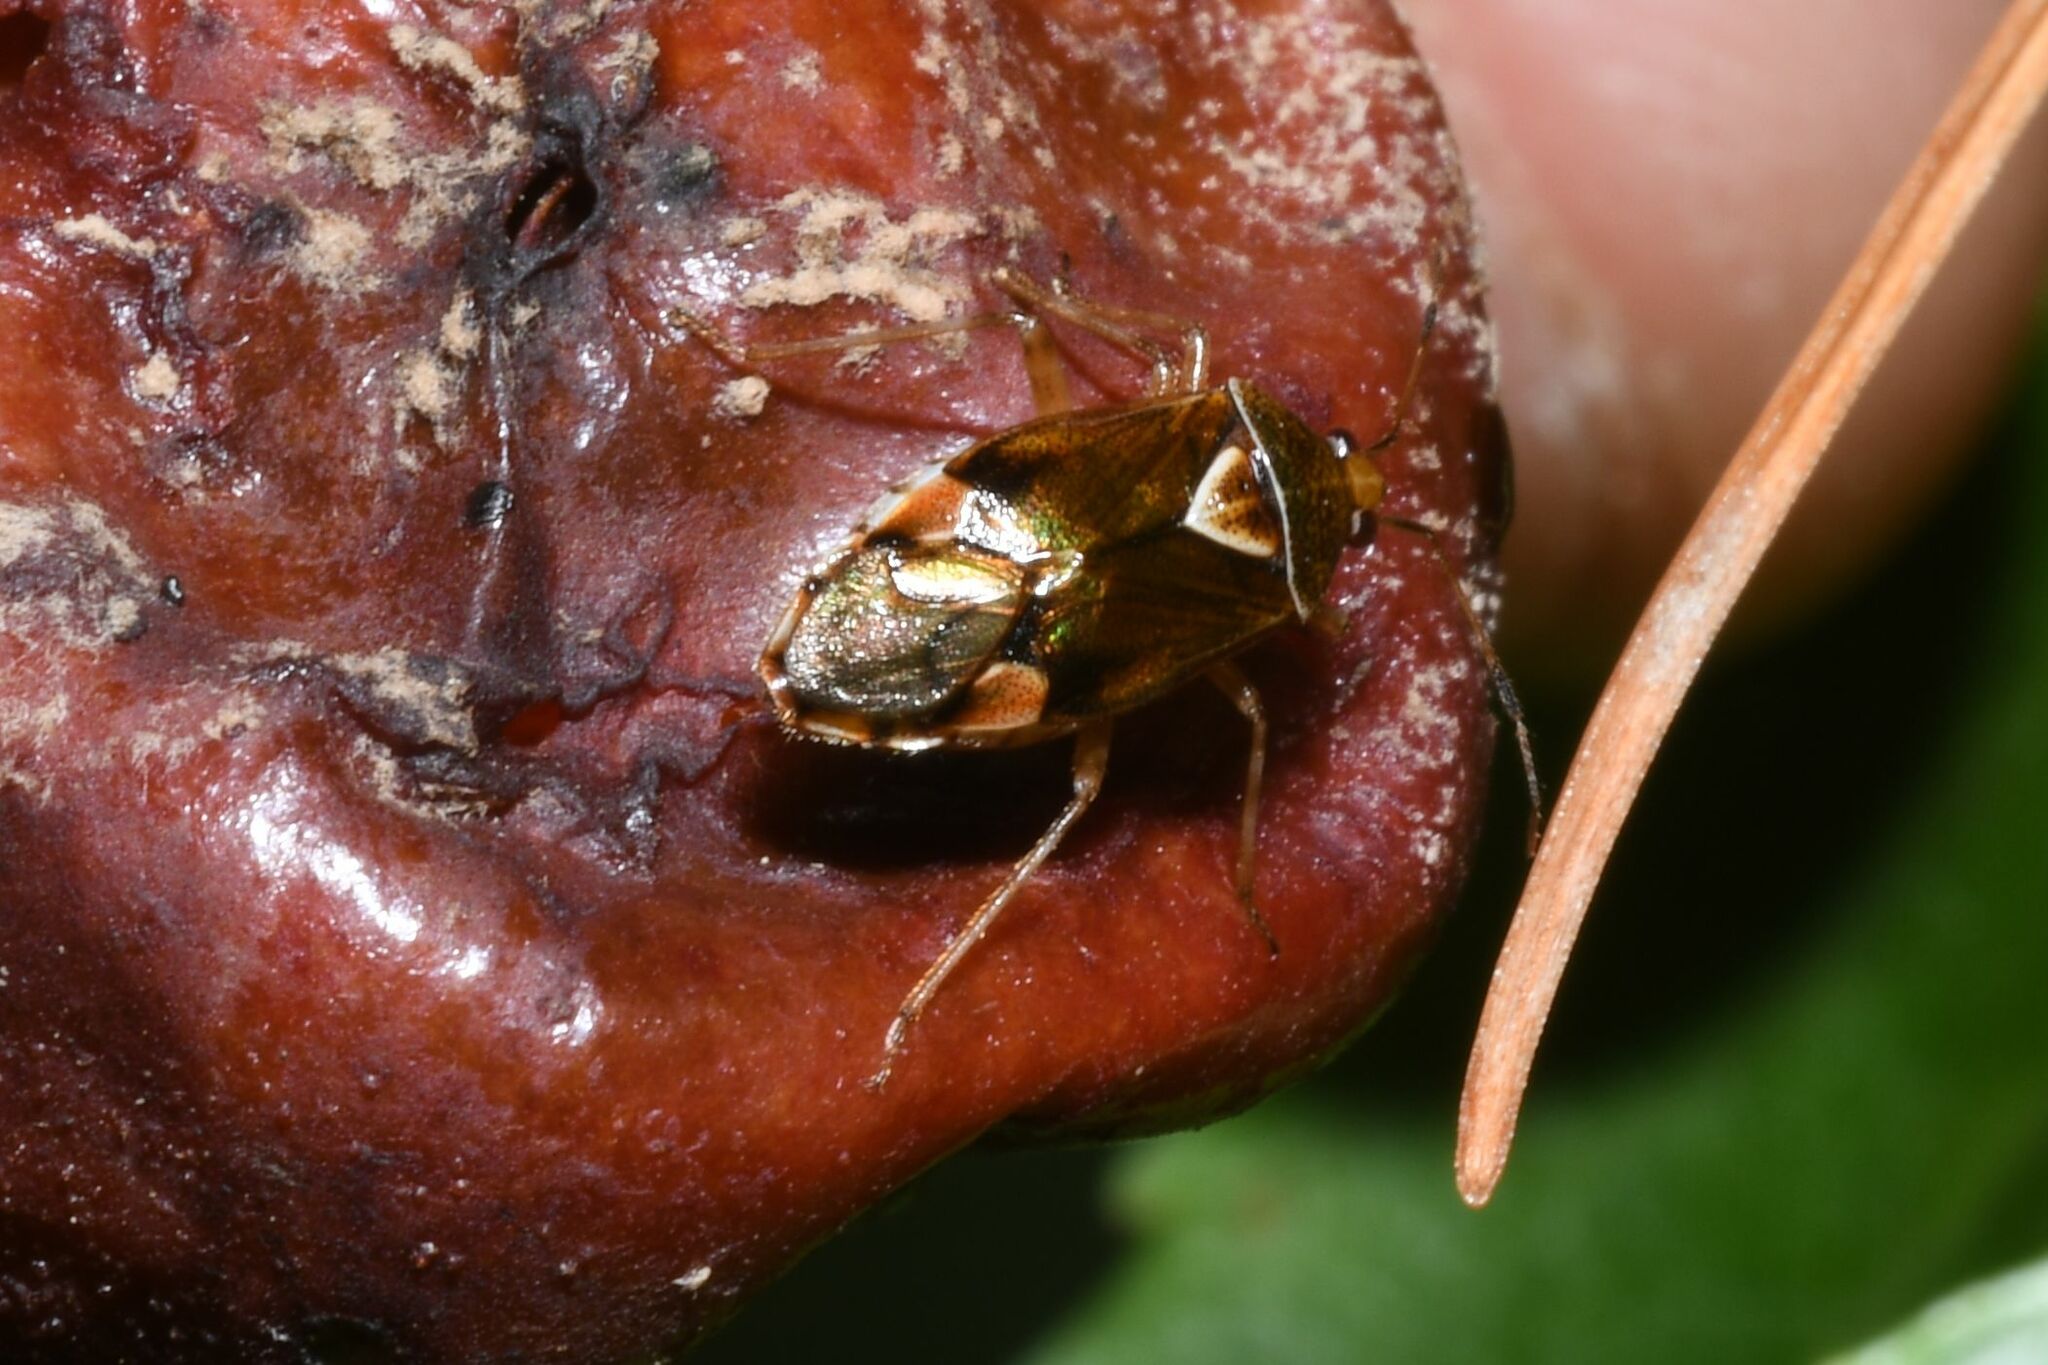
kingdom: Animalia
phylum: Arthropoda
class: Insecta
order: Hemiptera
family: Miridae
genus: Deraeocoris
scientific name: Deraeocoris flavilinea
